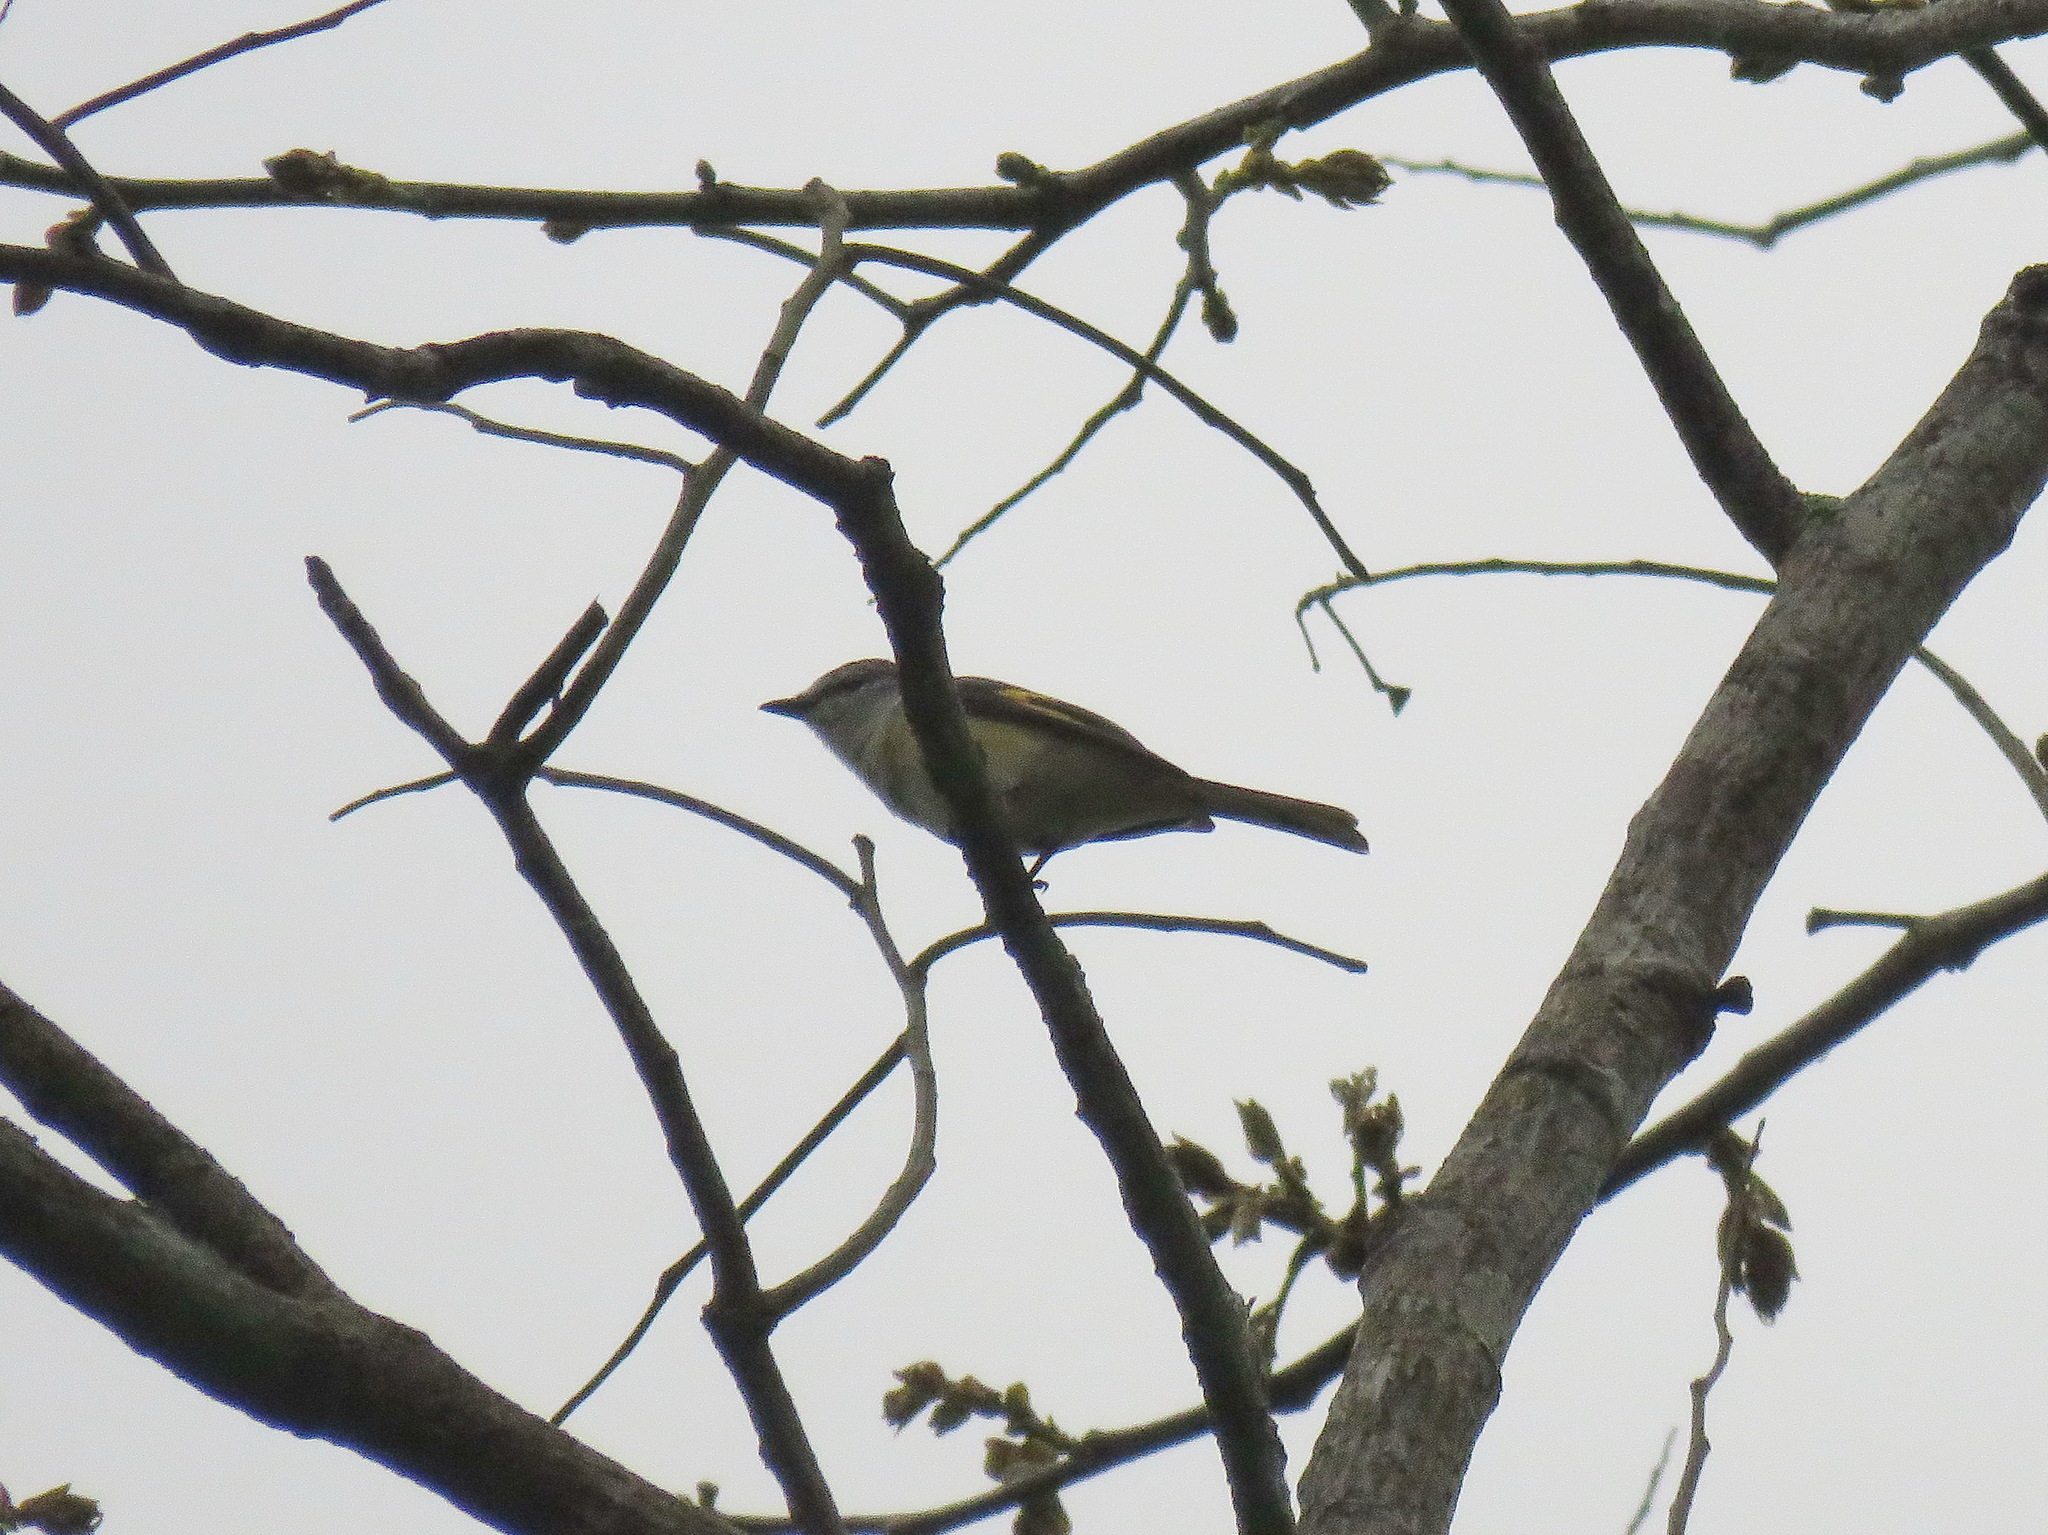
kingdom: Animalia
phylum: Chordata
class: Aves
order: Passeriformes
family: Campephagidae
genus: Pericrocotus
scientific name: Pericrocotus roseus
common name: Rosy minivet
